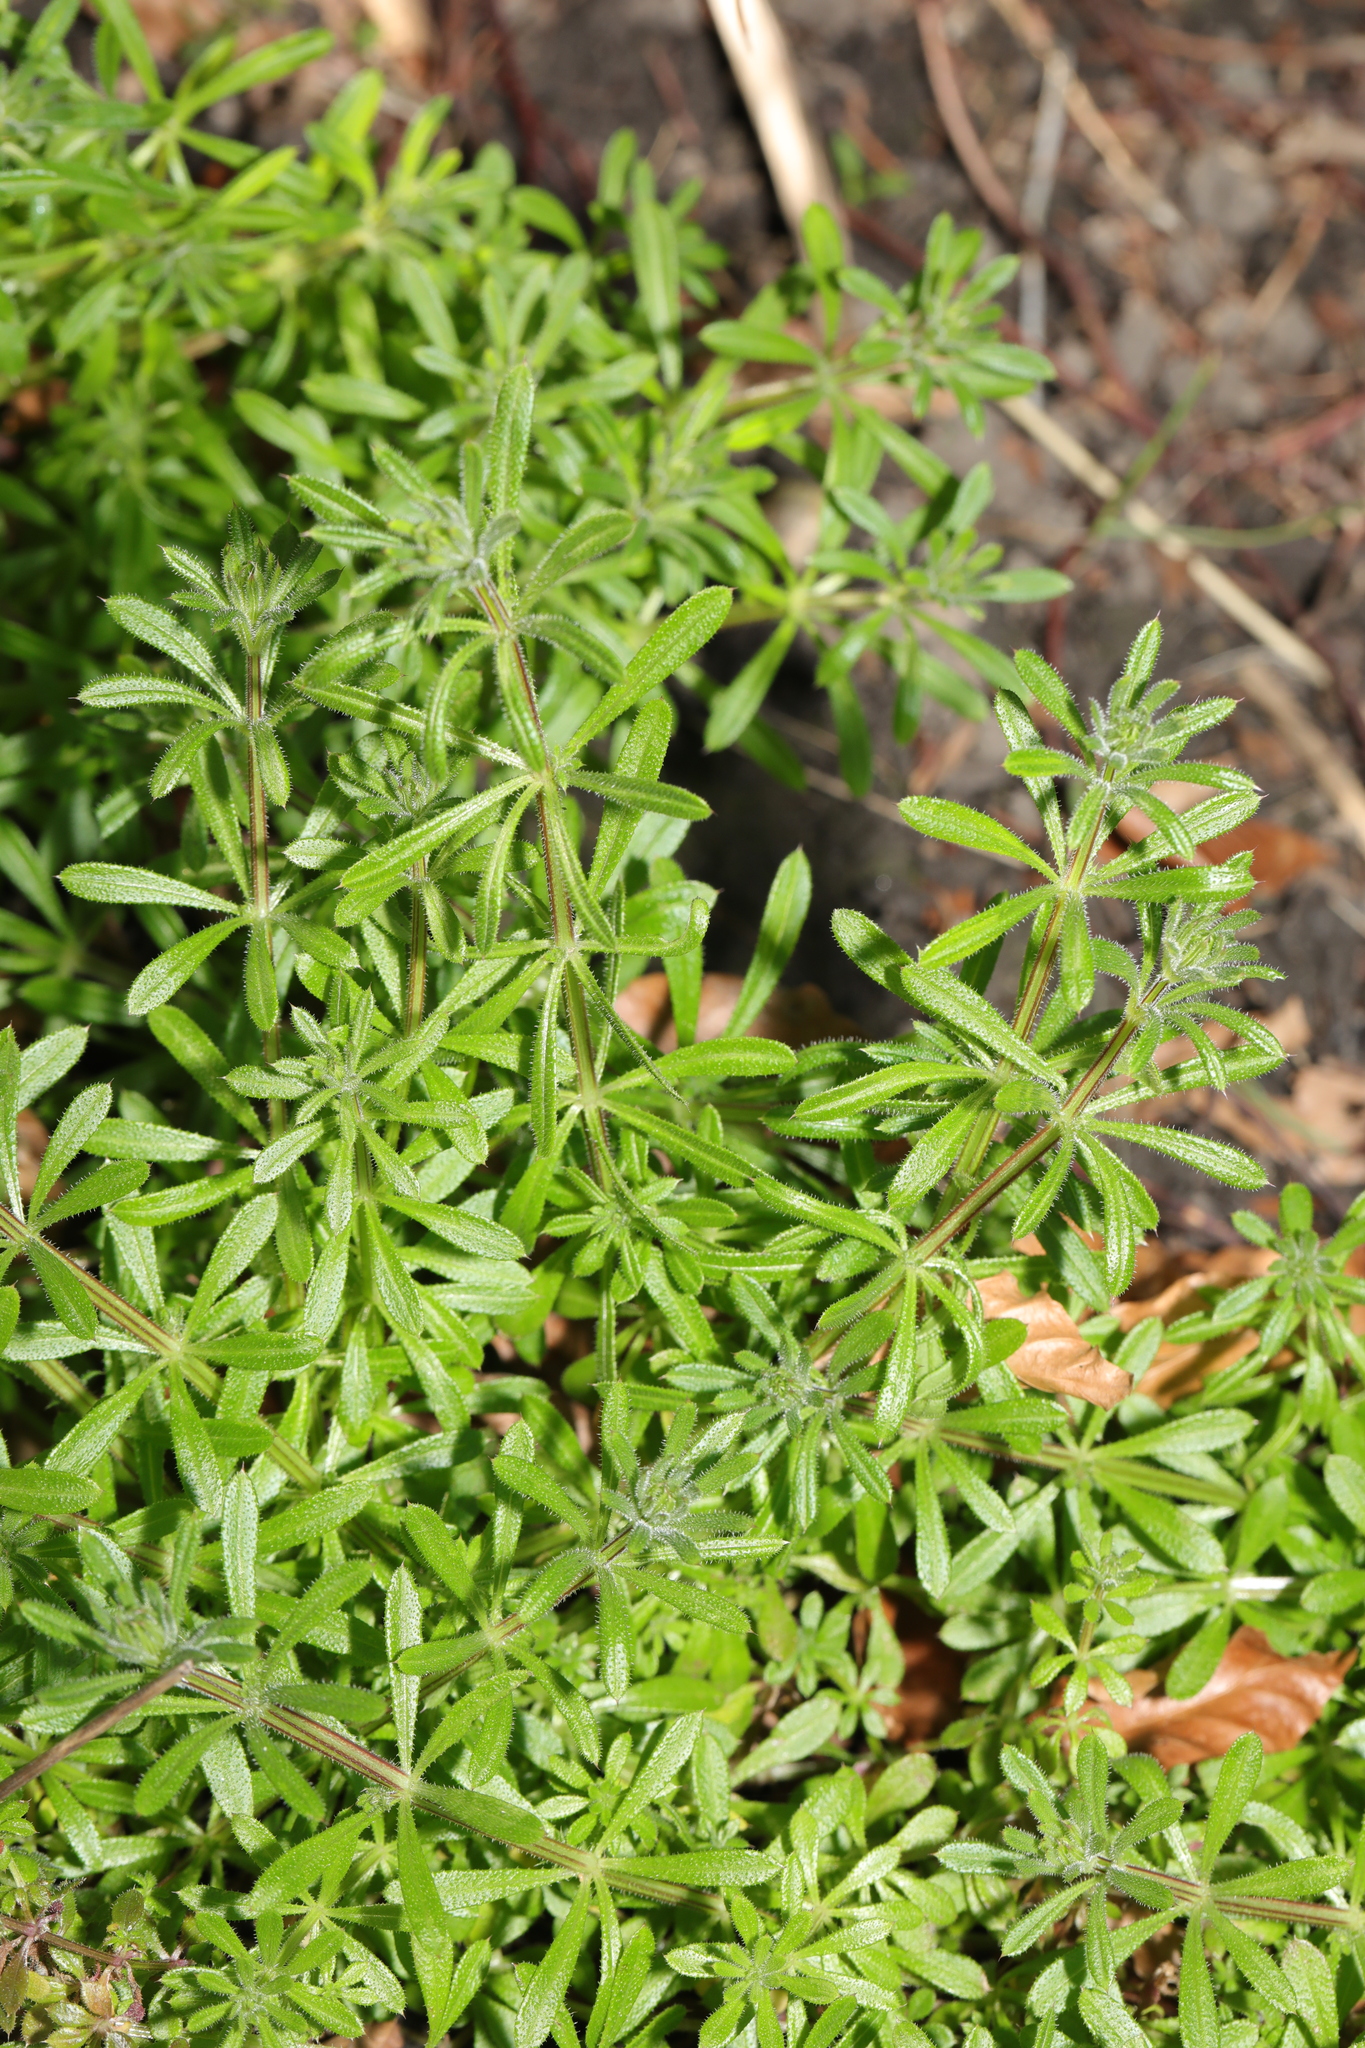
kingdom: Plantae
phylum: Tracheophyta
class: Magnoliopsida
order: Gentianales
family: Rubiaceae
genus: Galium
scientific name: Galium aparine
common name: Cleavers
